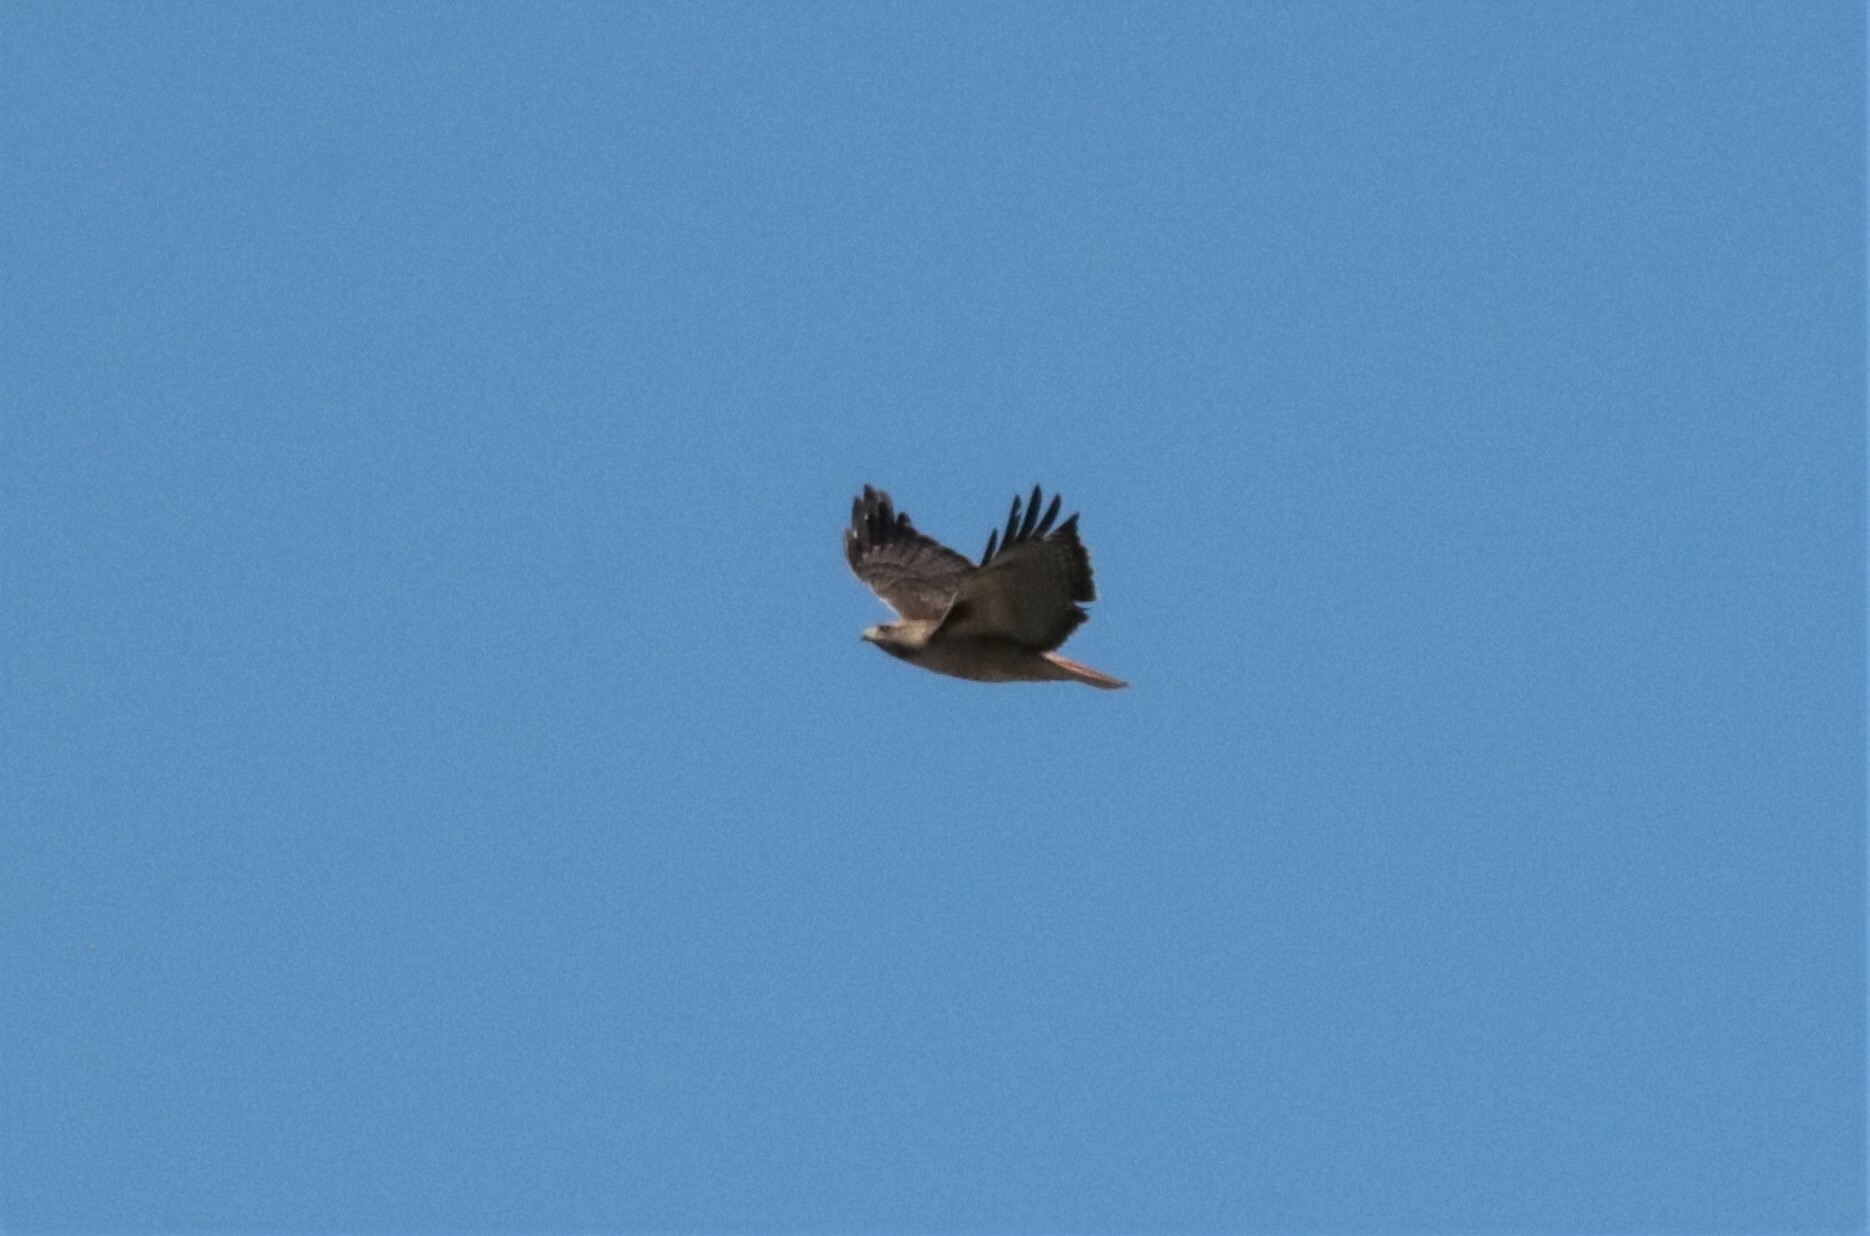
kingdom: Animalia
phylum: Chordata
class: Aves
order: Accipitriformes
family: Accipitridae
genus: Buteo
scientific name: Buteo jamaicensis
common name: Red-tailed hawk
